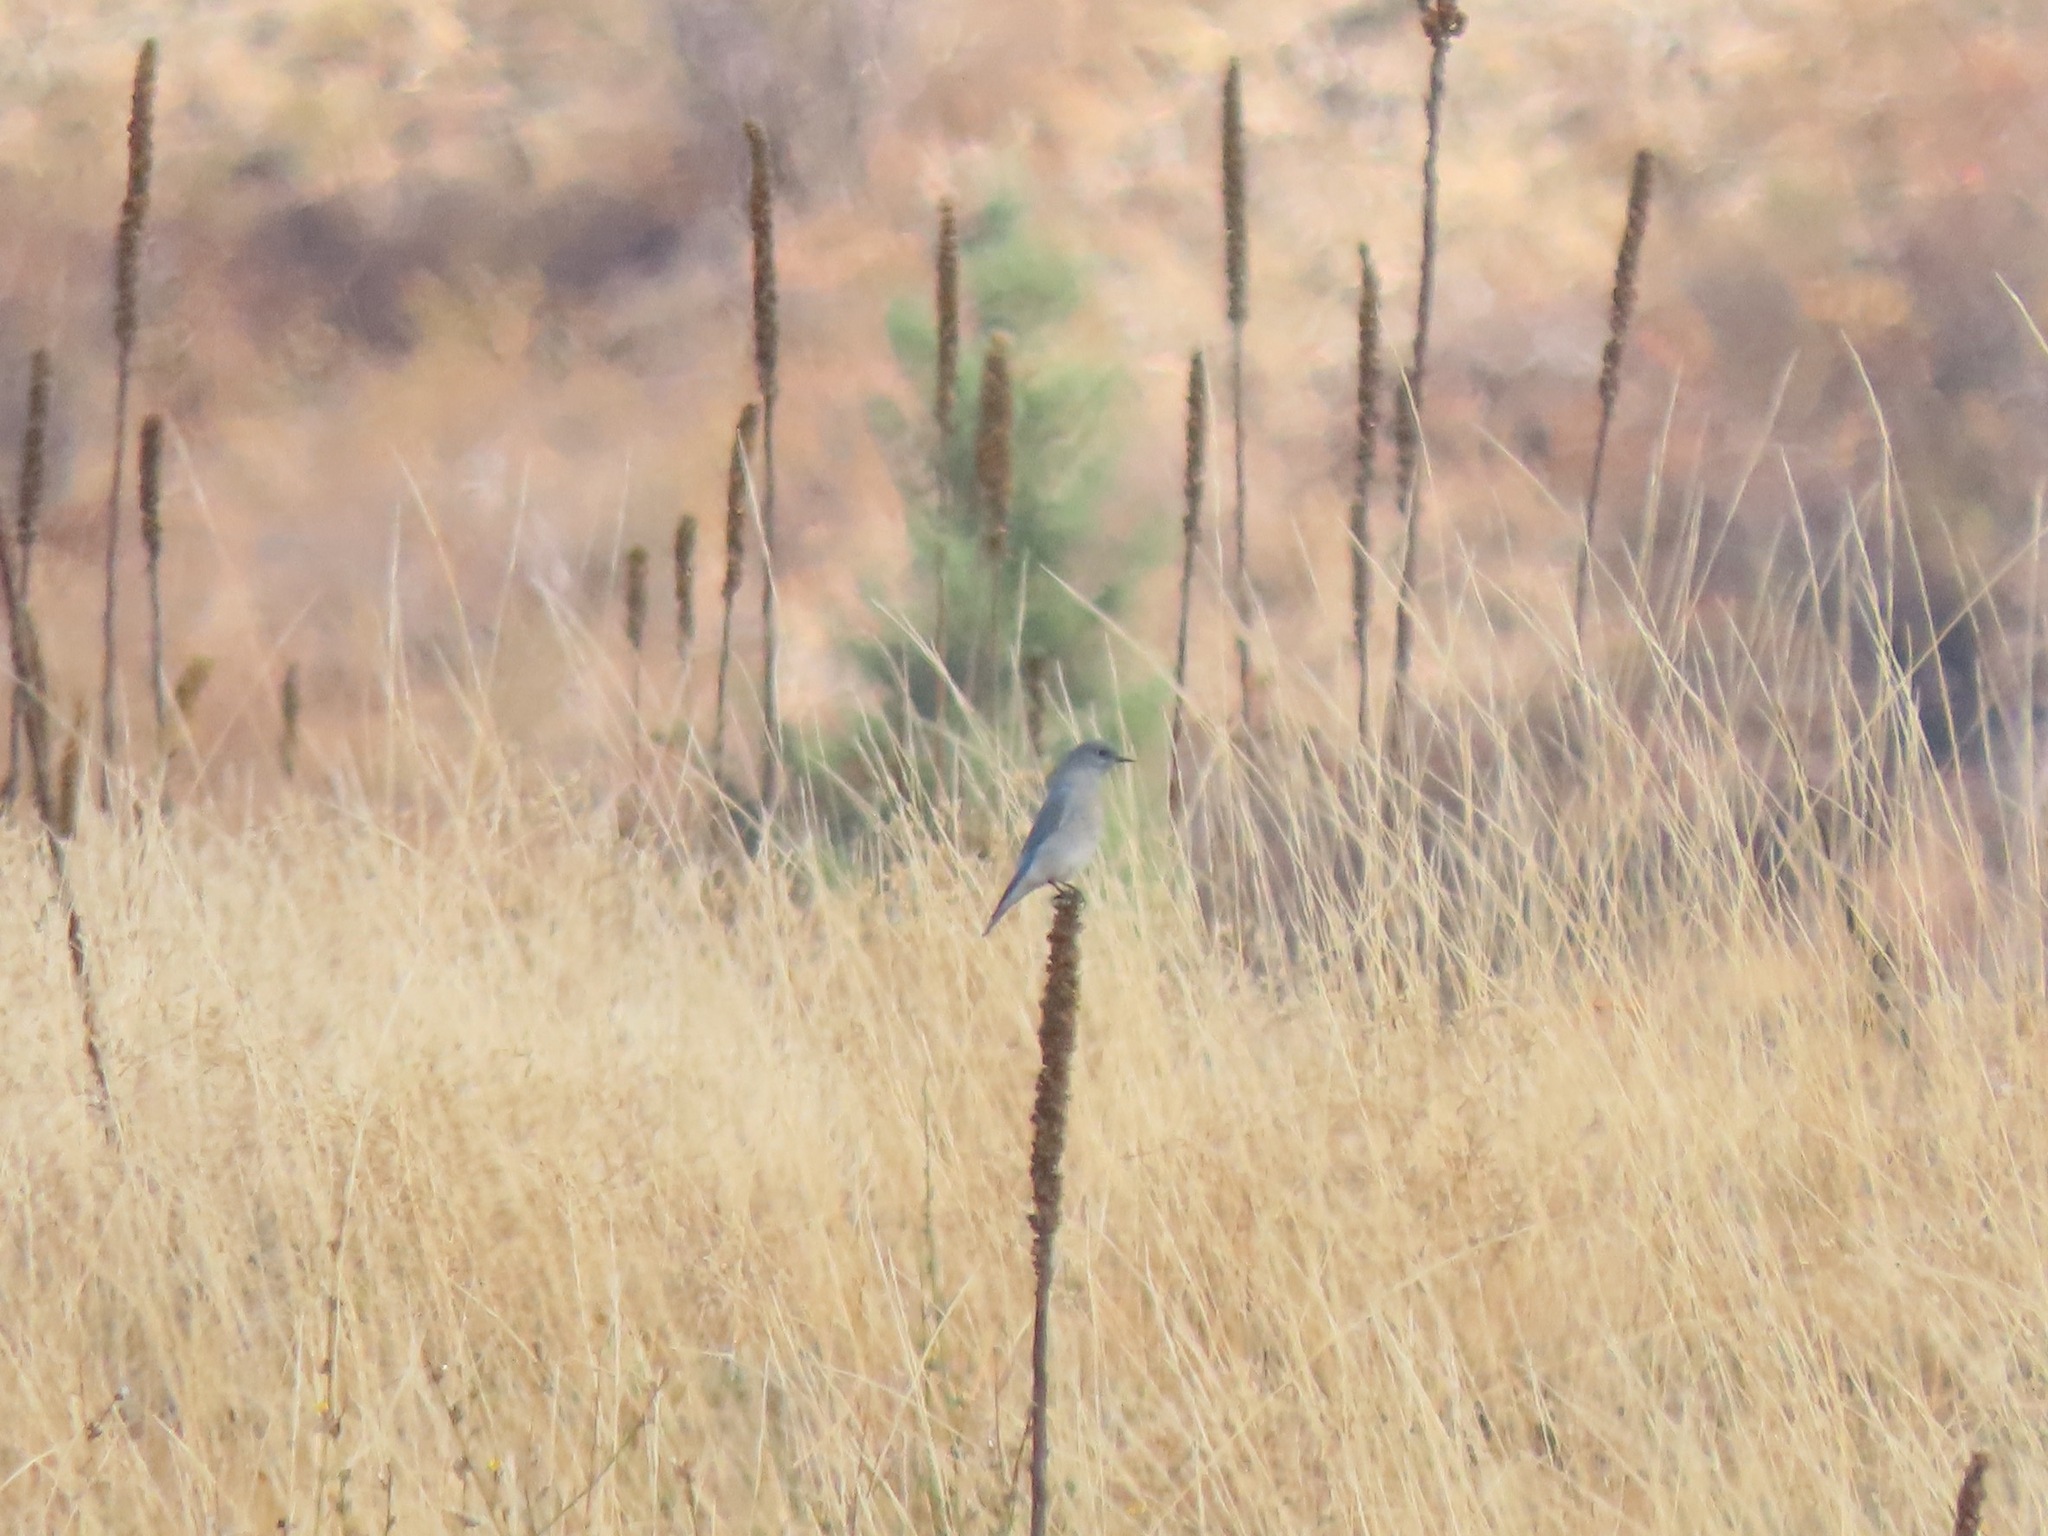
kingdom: Animalia
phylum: Chordata
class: Aves
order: Passeriformes
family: Turdidae
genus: Sialia
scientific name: Sialia currucoides
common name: Mountain bluebird
